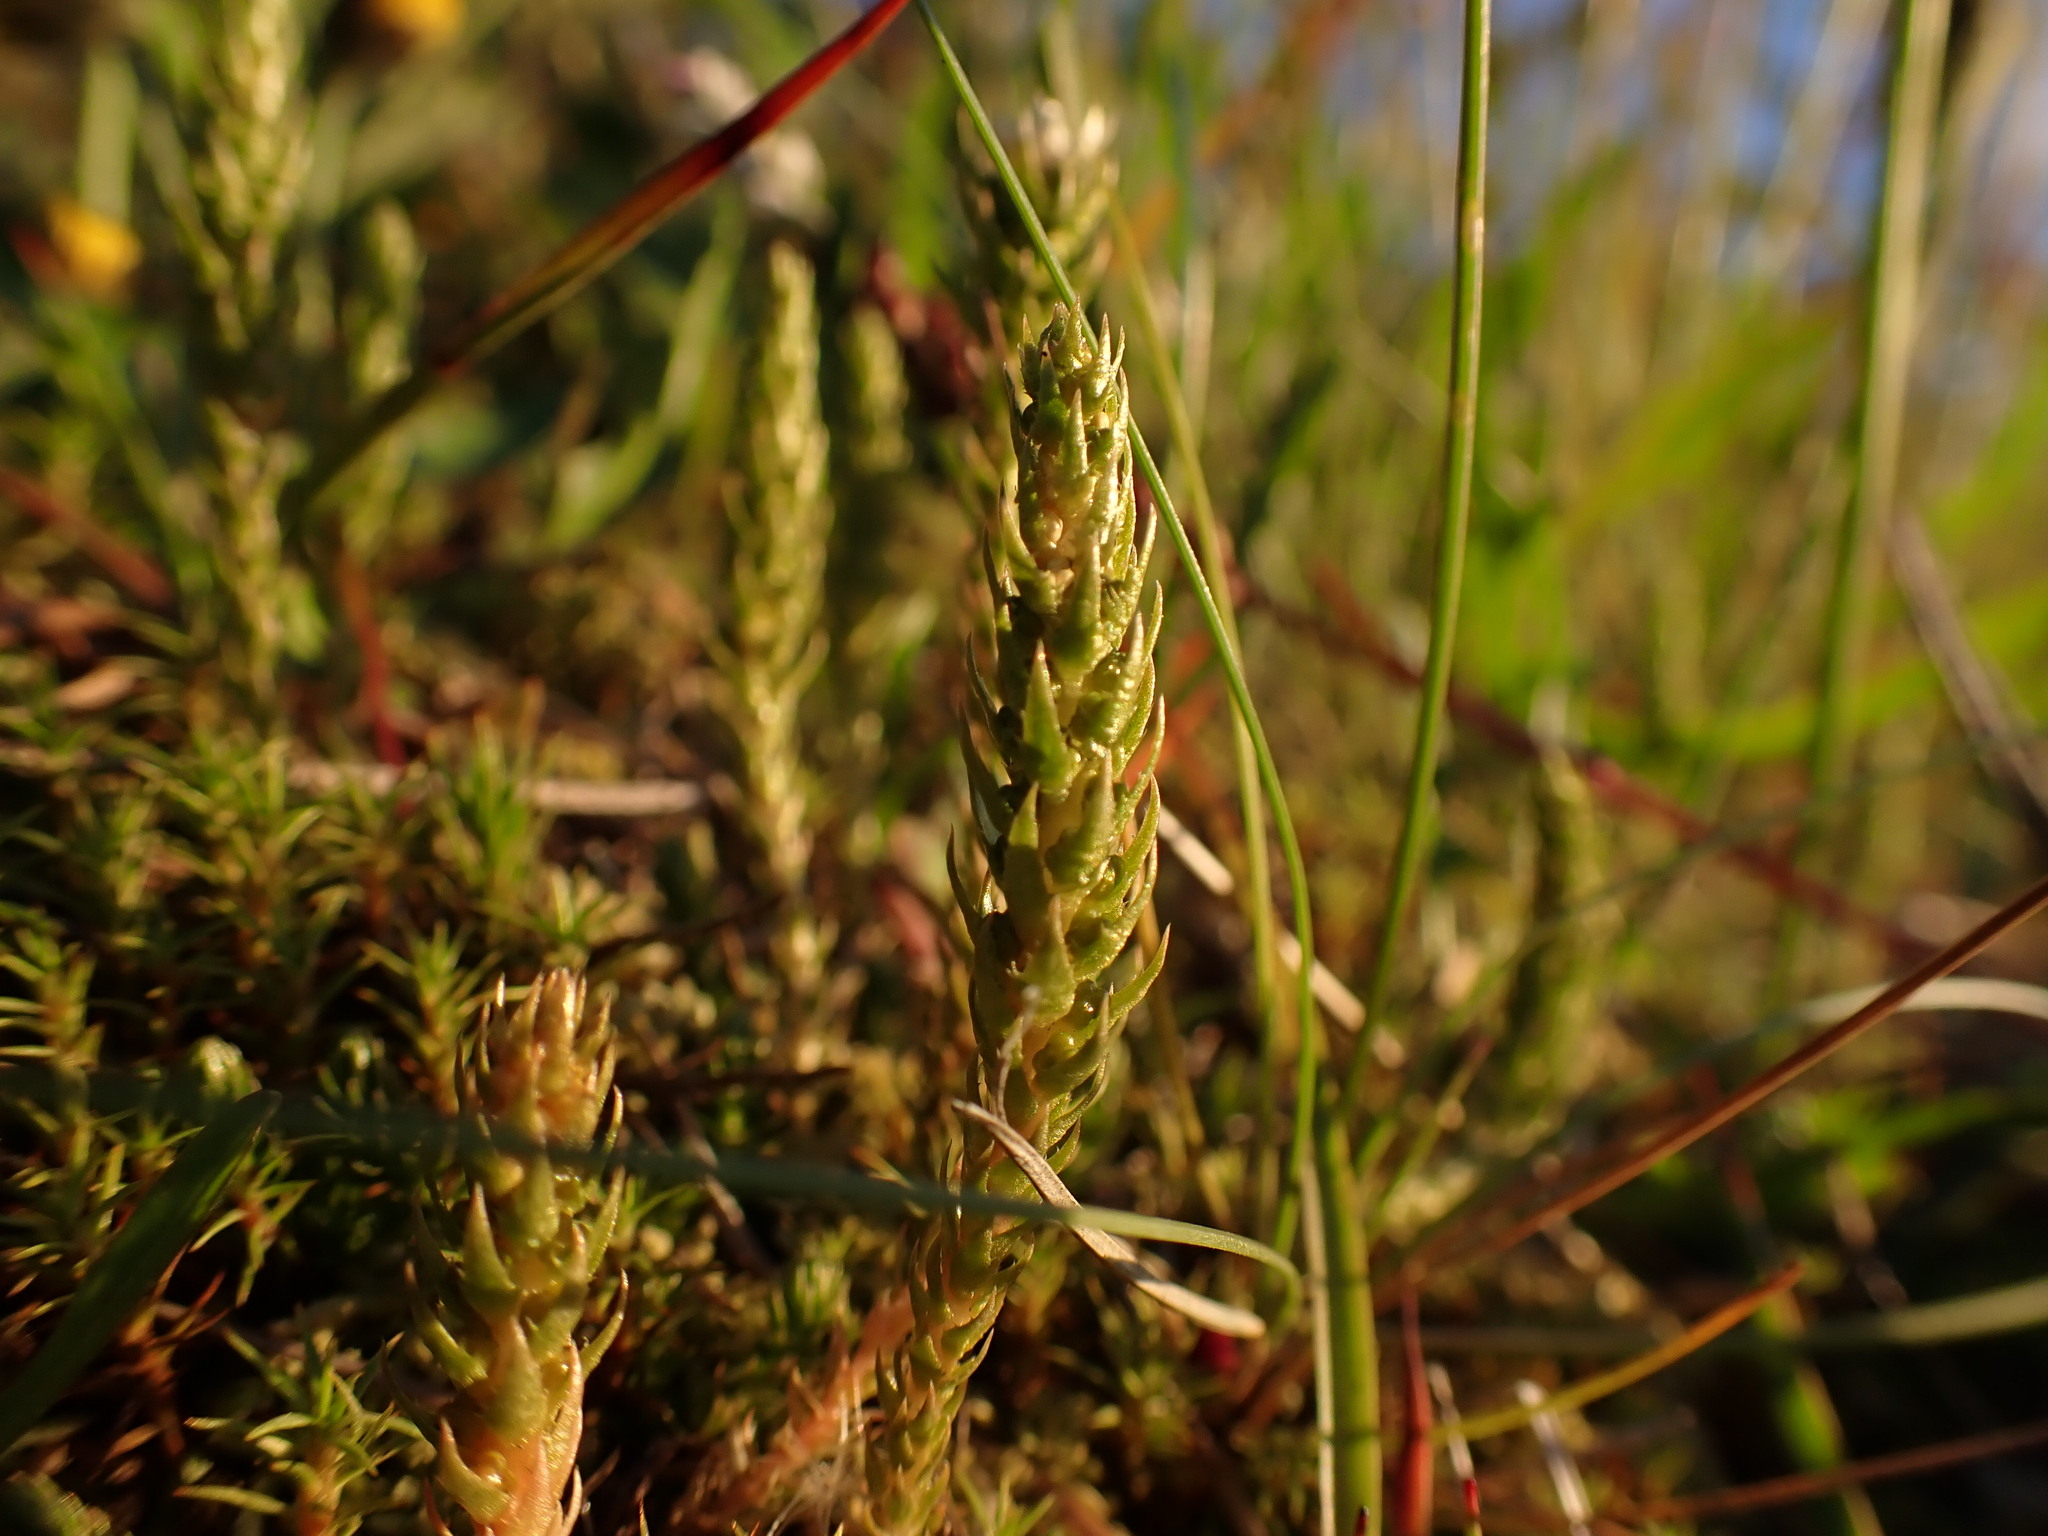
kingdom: Plantae
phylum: Tracheophyta
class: Lycopodiopsida
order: Selaginellales
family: Selaginellaceae
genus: Selaginella
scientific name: Selaginella selaginoides
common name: Prickly mountain-moss
